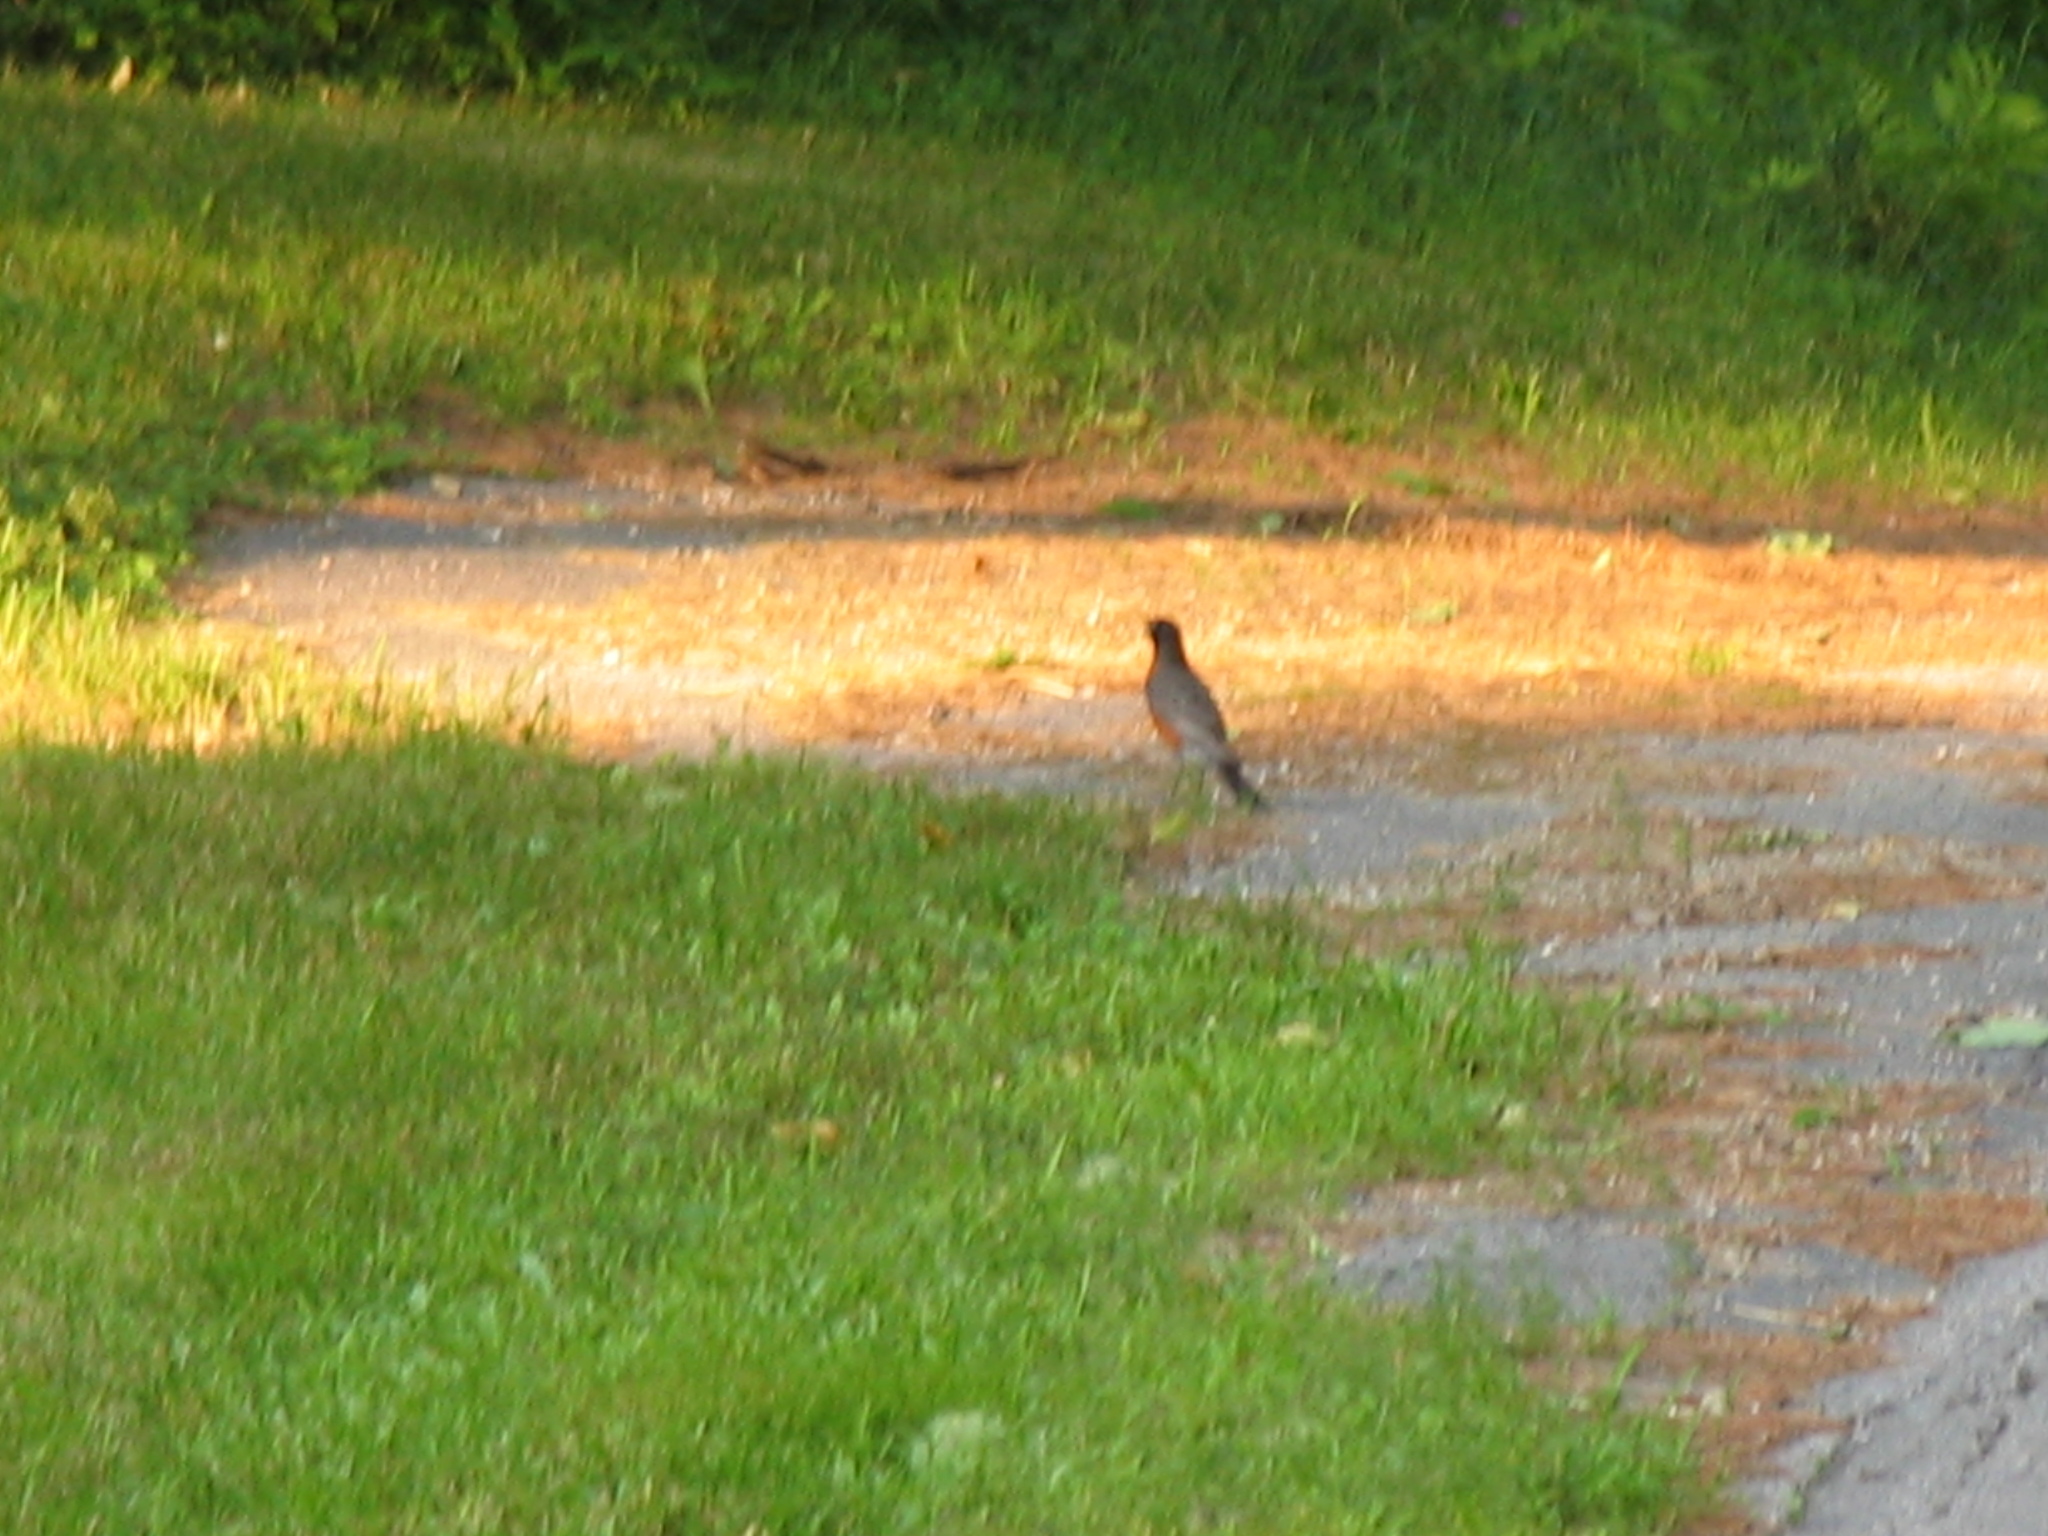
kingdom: Animalia
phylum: Chordata
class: Aves
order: Passeriformes
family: Turdidae
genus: Turdus
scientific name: Turdus migratorius
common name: American robin
